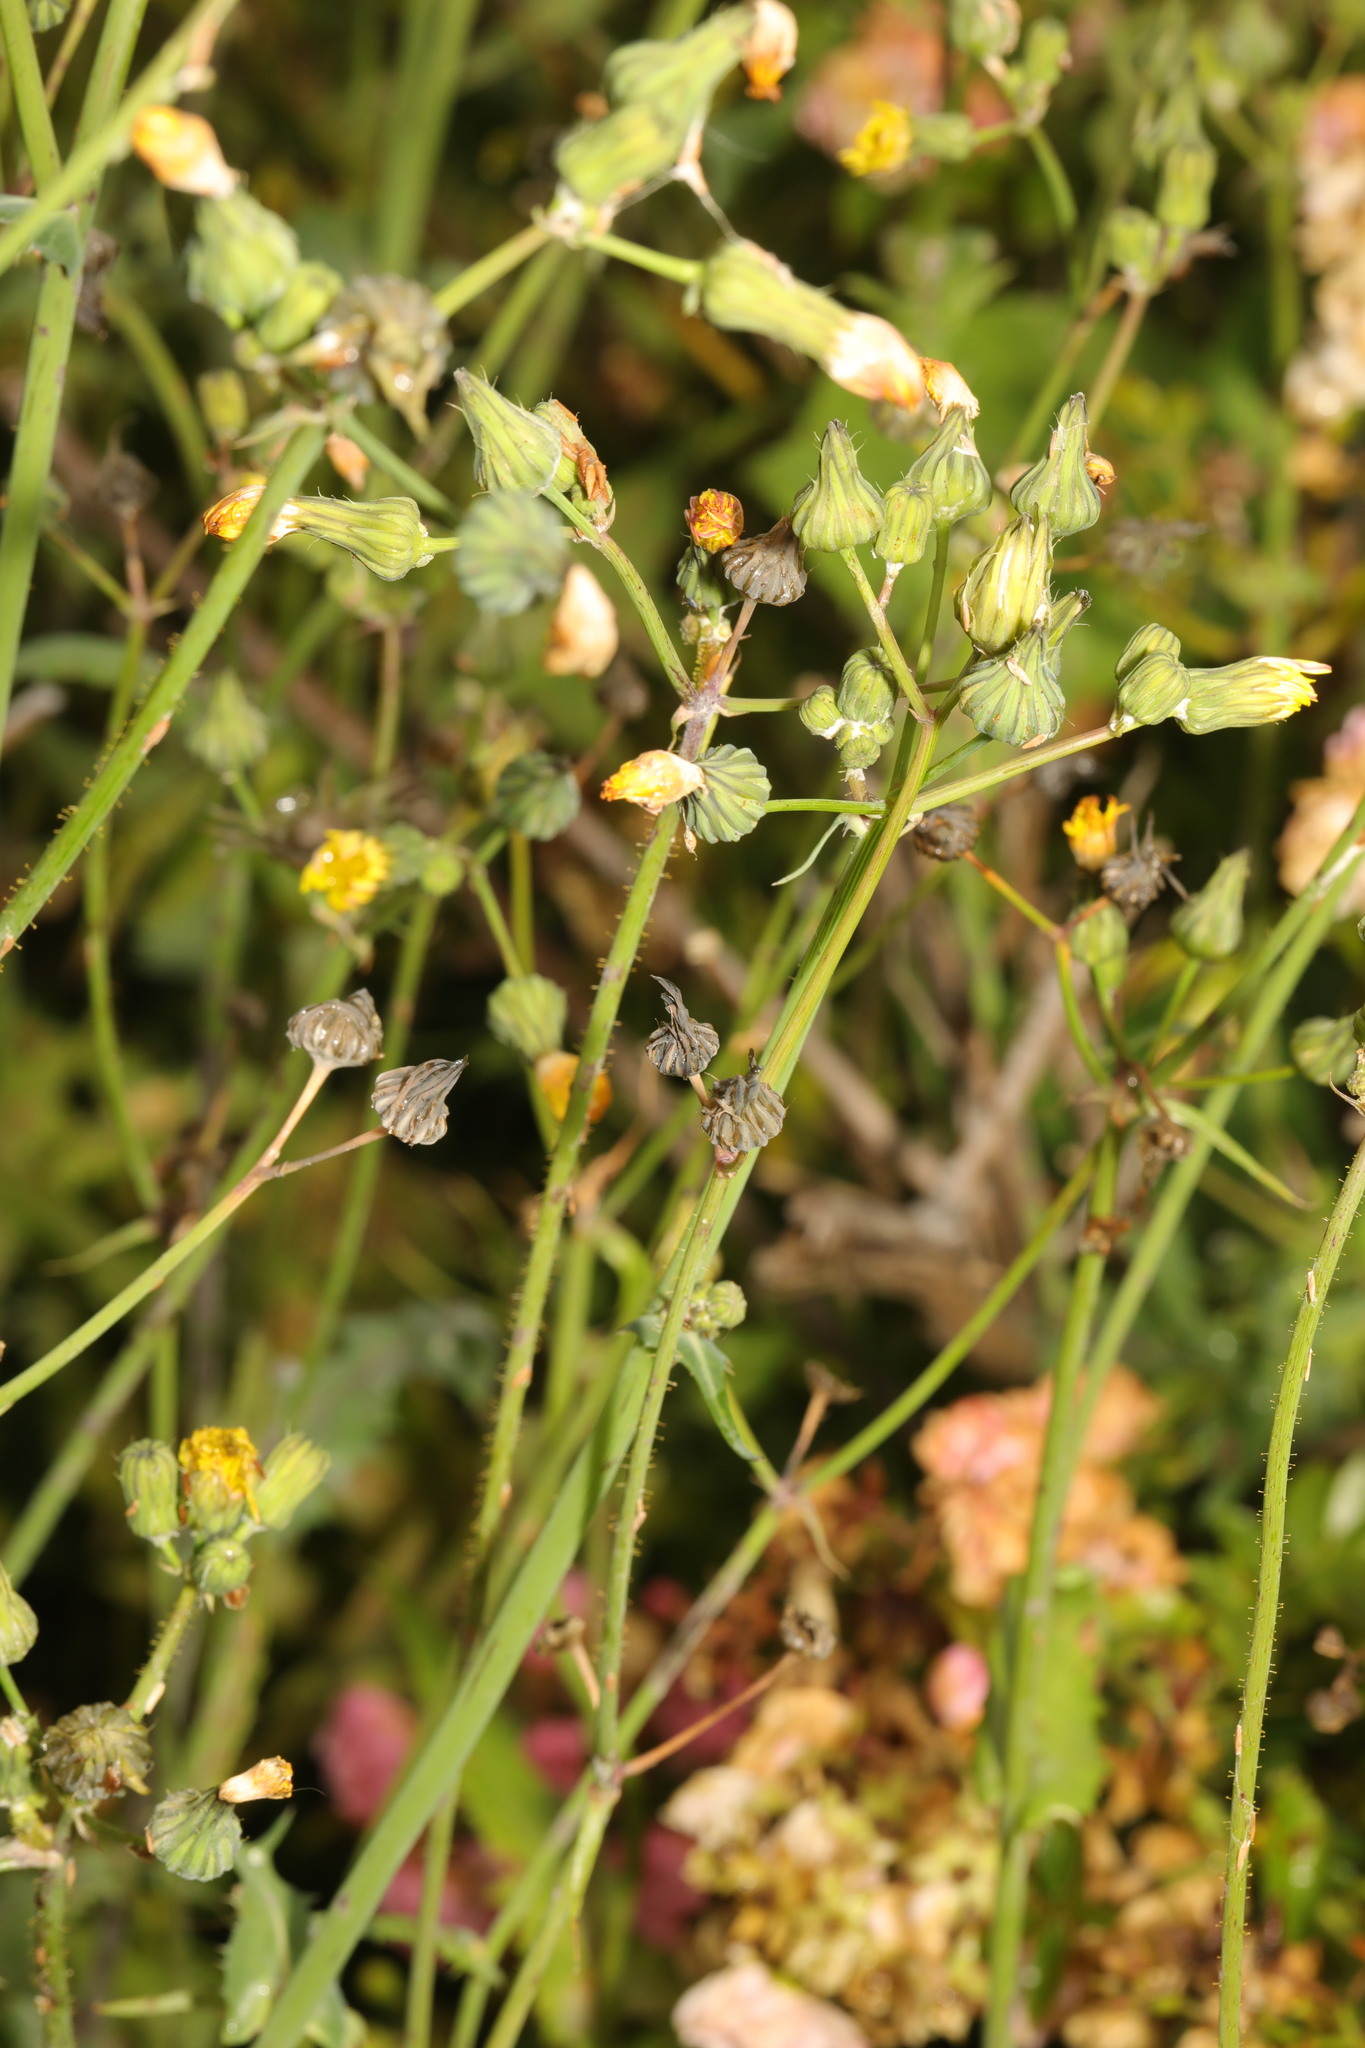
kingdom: Plantae
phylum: Tracheophyta
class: Magnoliopsida
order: Asterales
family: Asteraceae
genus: Sonchus
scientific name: Sonchus oleraceus
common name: Common sowthistle
